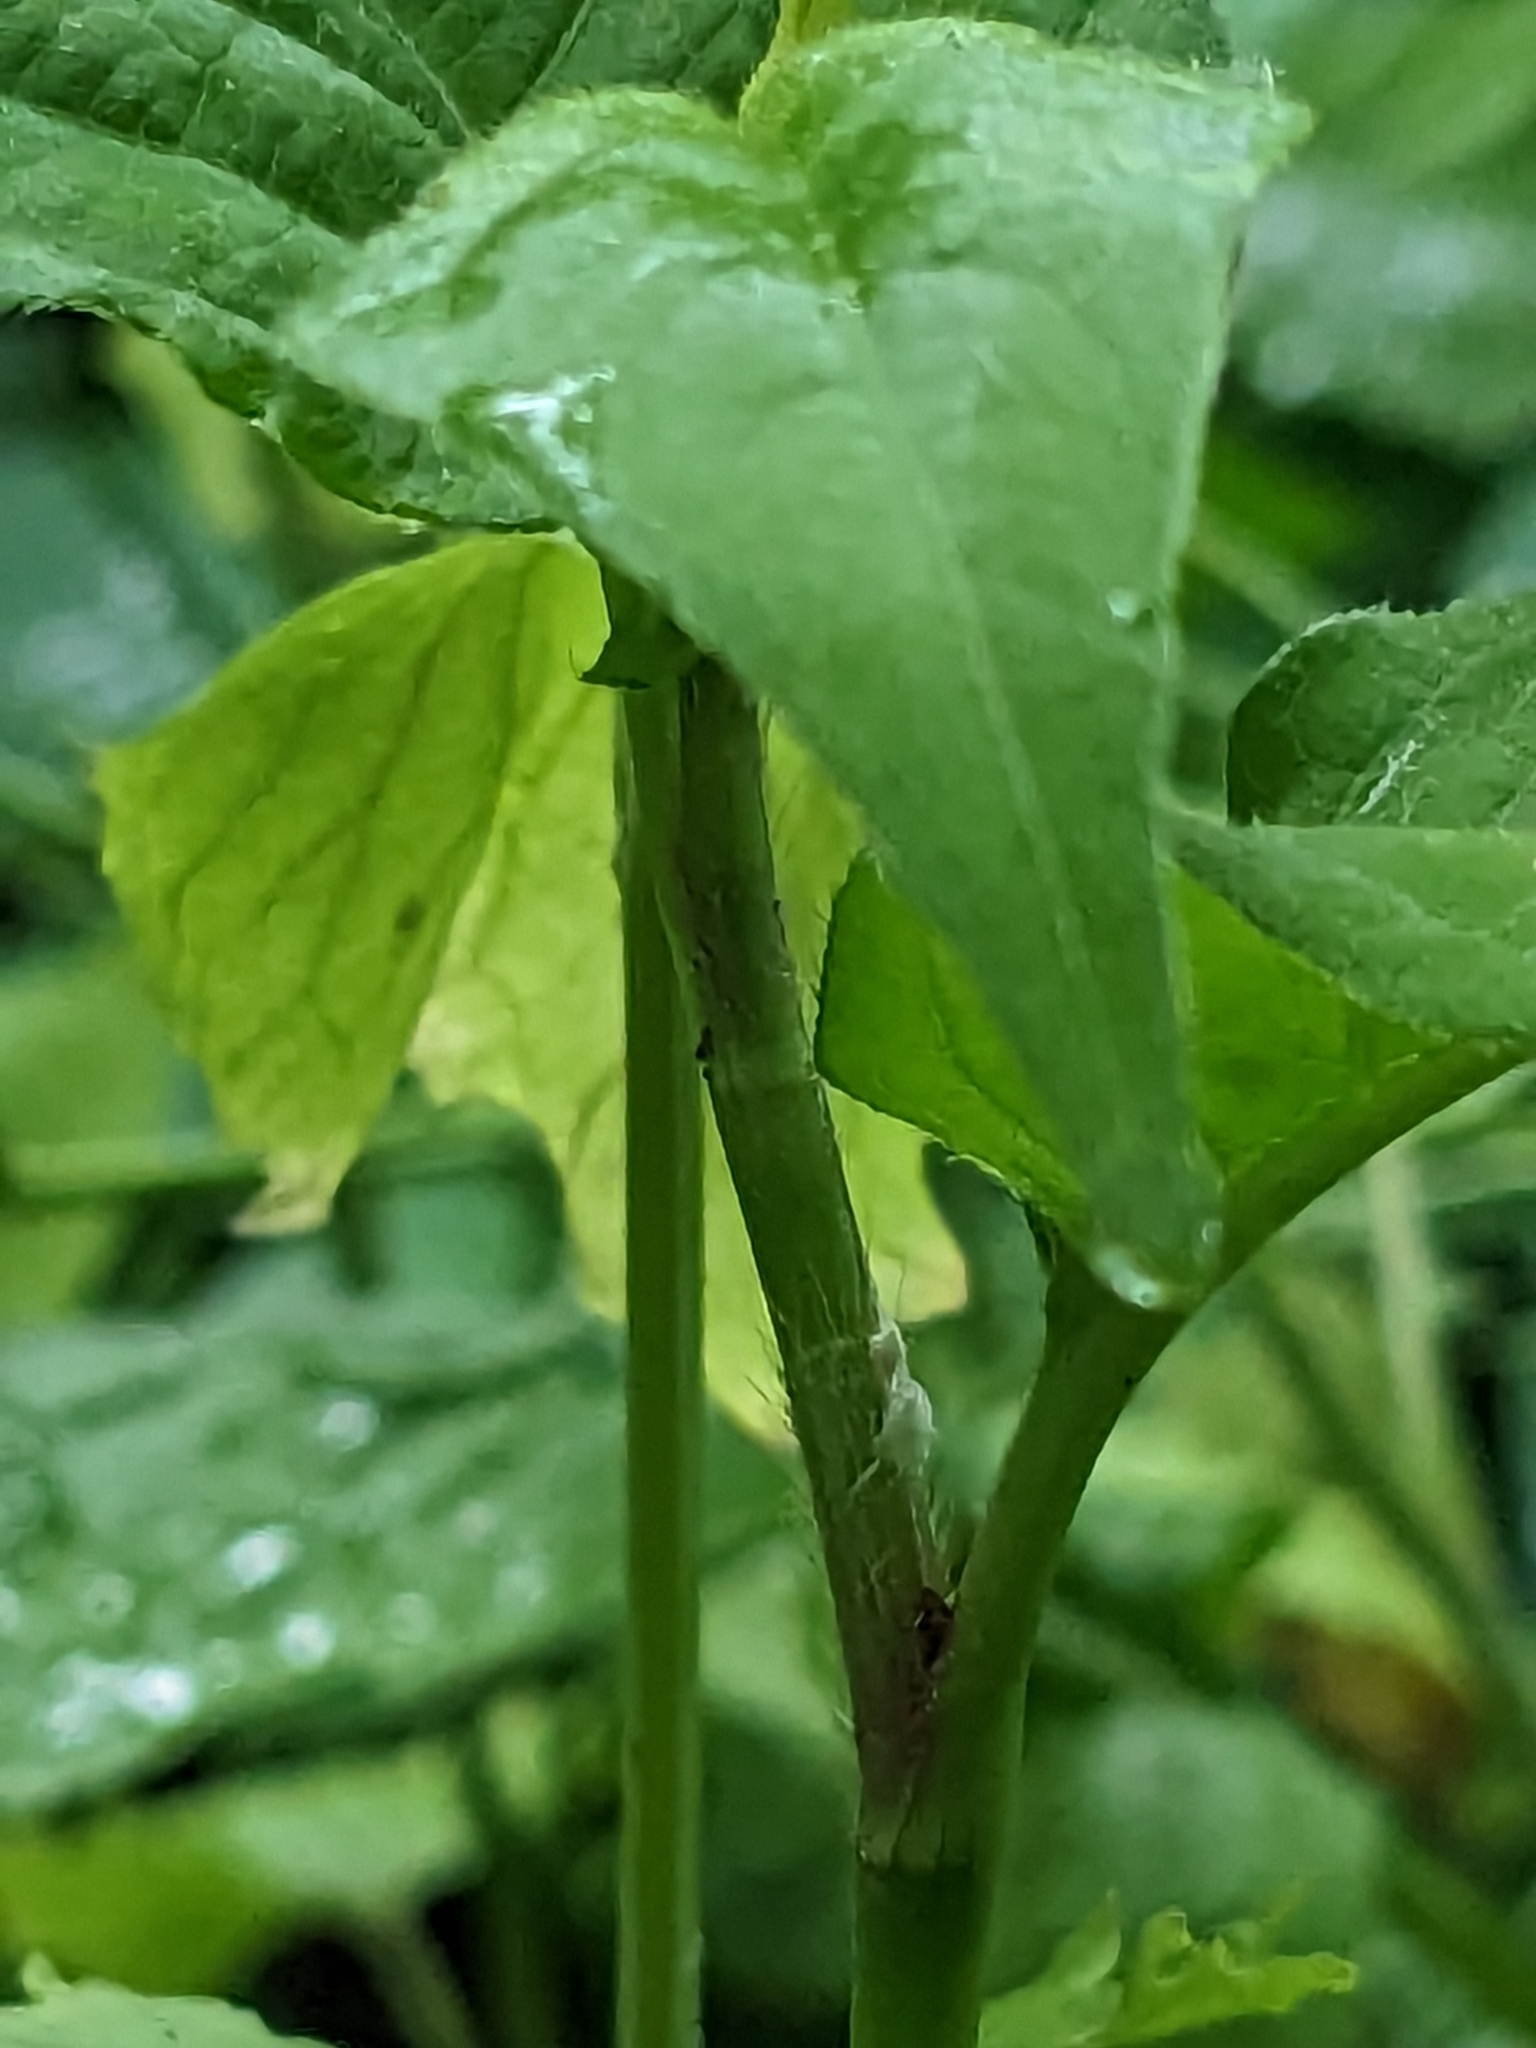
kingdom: Plantae
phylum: Tracheophyta
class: Magnoliopsida
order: Caryophyllales
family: Polygonaceae
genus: Persicaria
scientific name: Persicaria virginiana
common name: Jumpseed
